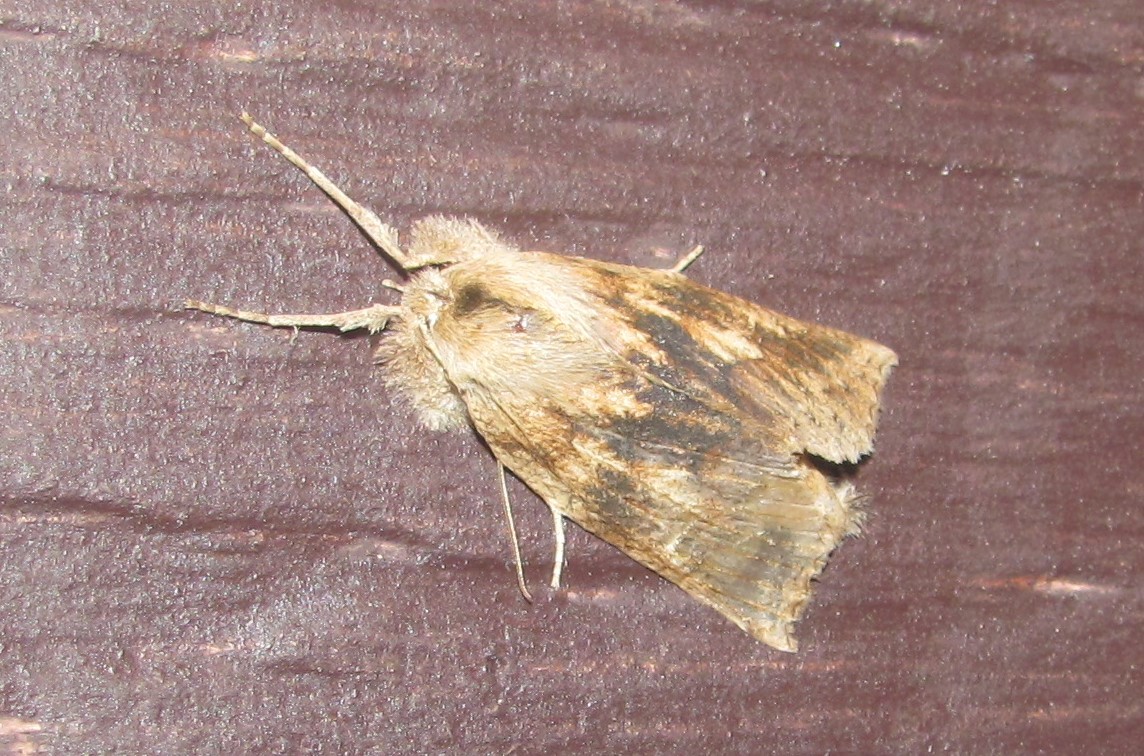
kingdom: Animalia
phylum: Arthropoda
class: Insecta
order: Lepidoptera
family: Geometridae
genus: Declana
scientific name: Declana leptomera
